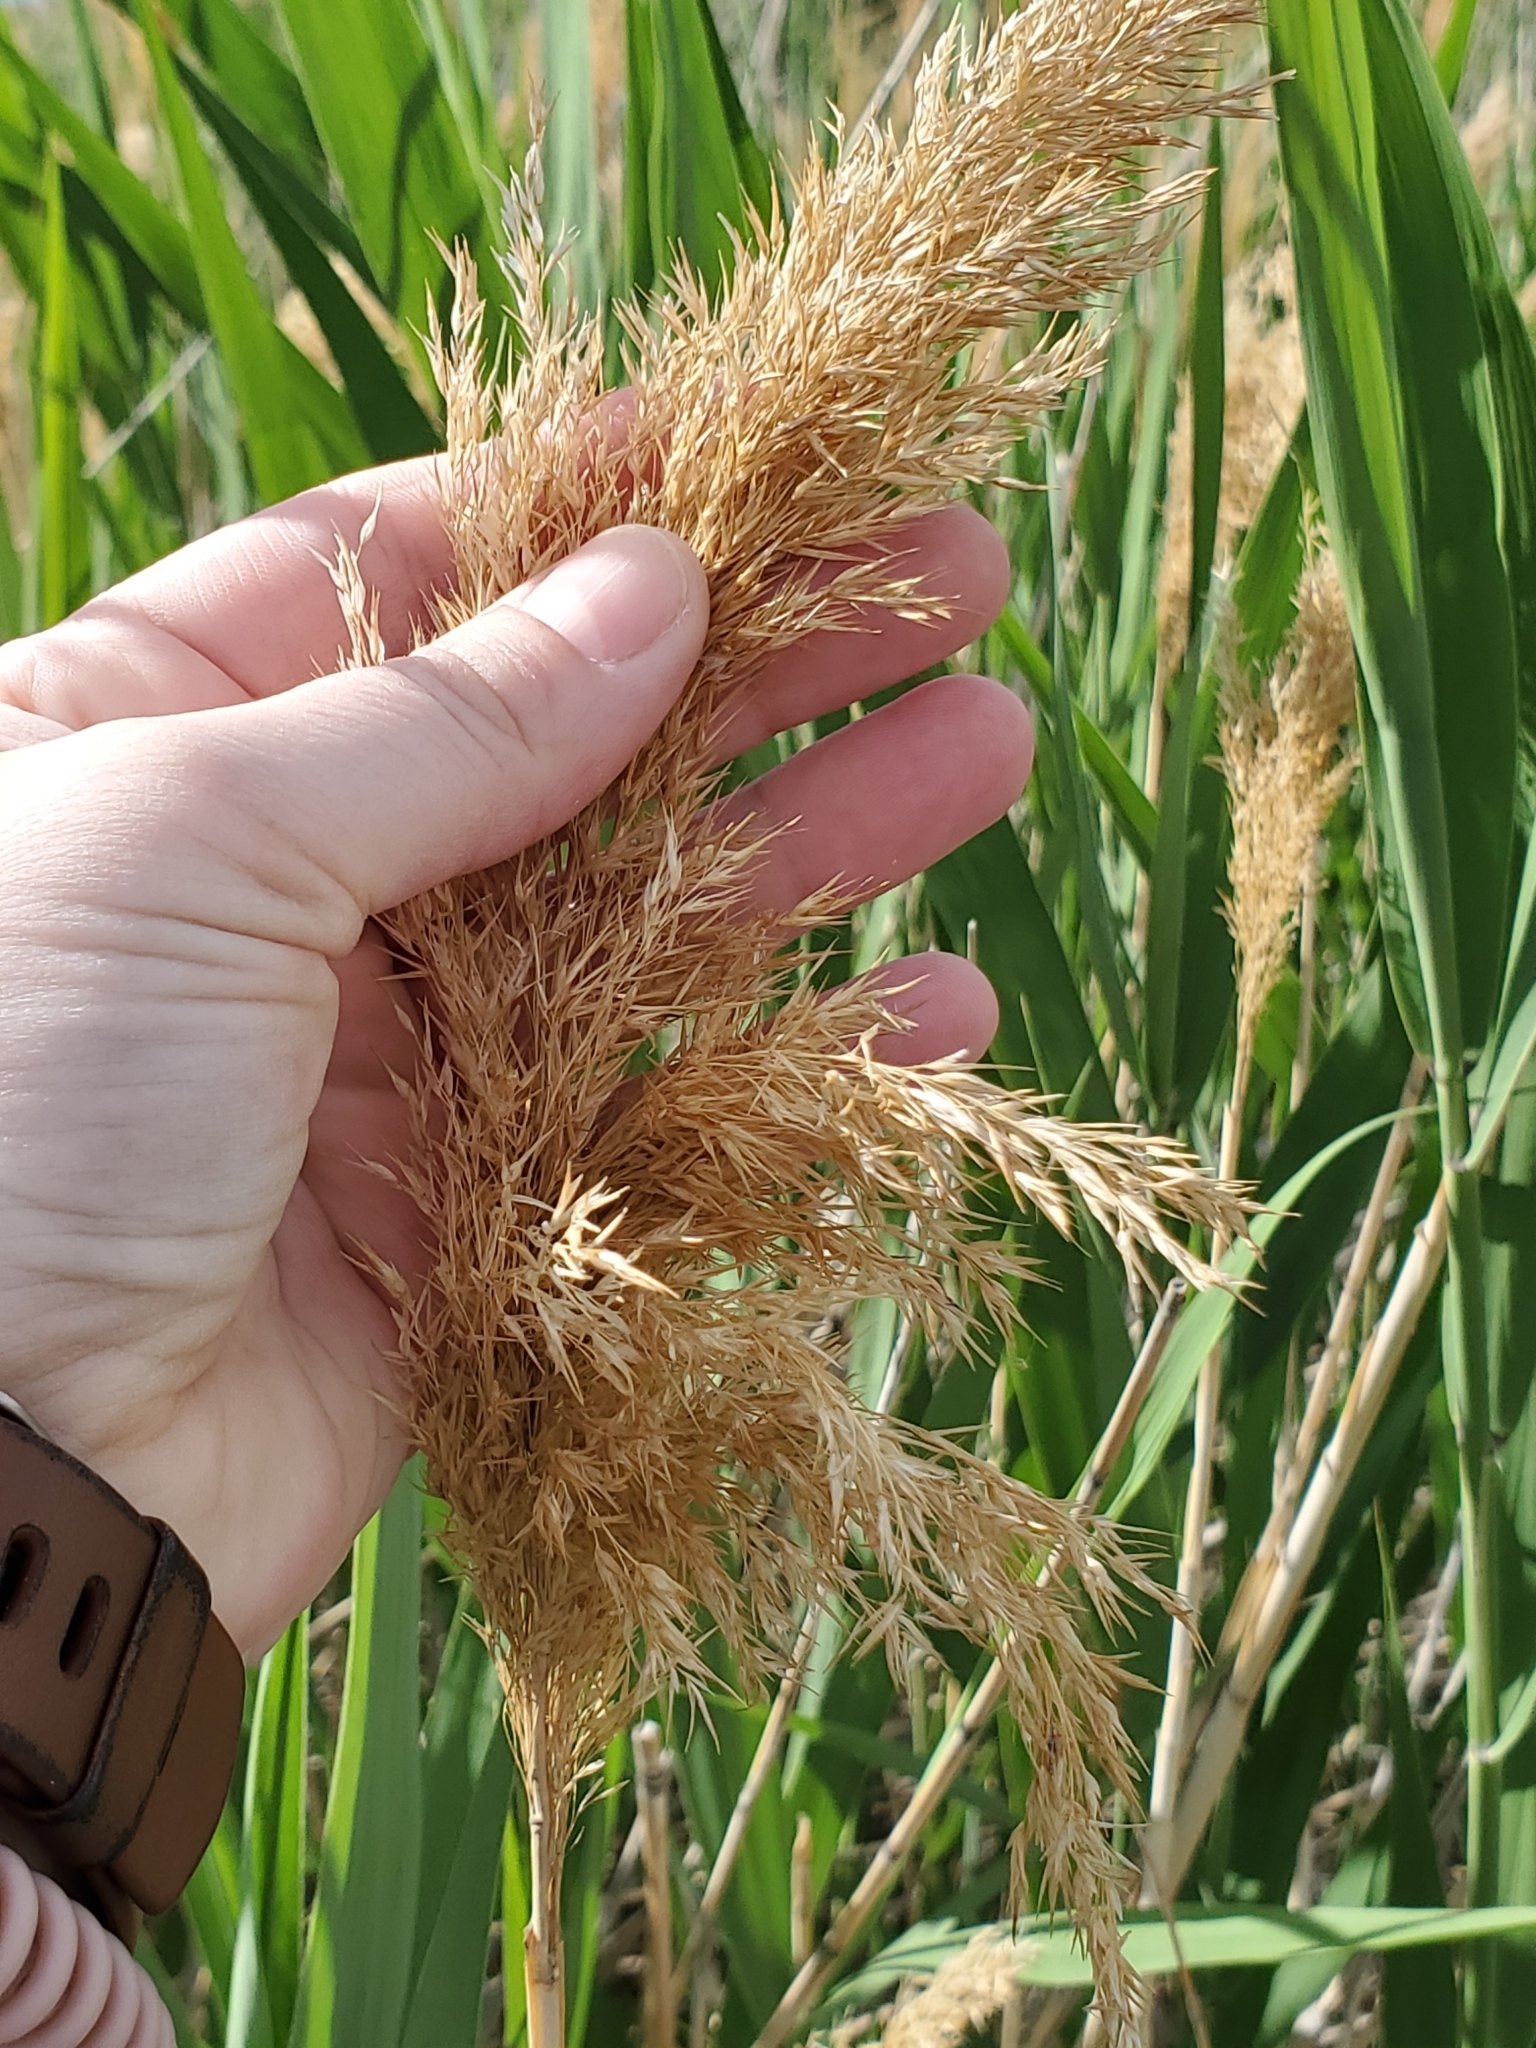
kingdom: Plantae
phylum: Tracheophyta
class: Liliopsida
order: Poales
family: Poaceae
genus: Phragmites
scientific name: Phragmites australis
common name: Common reed
